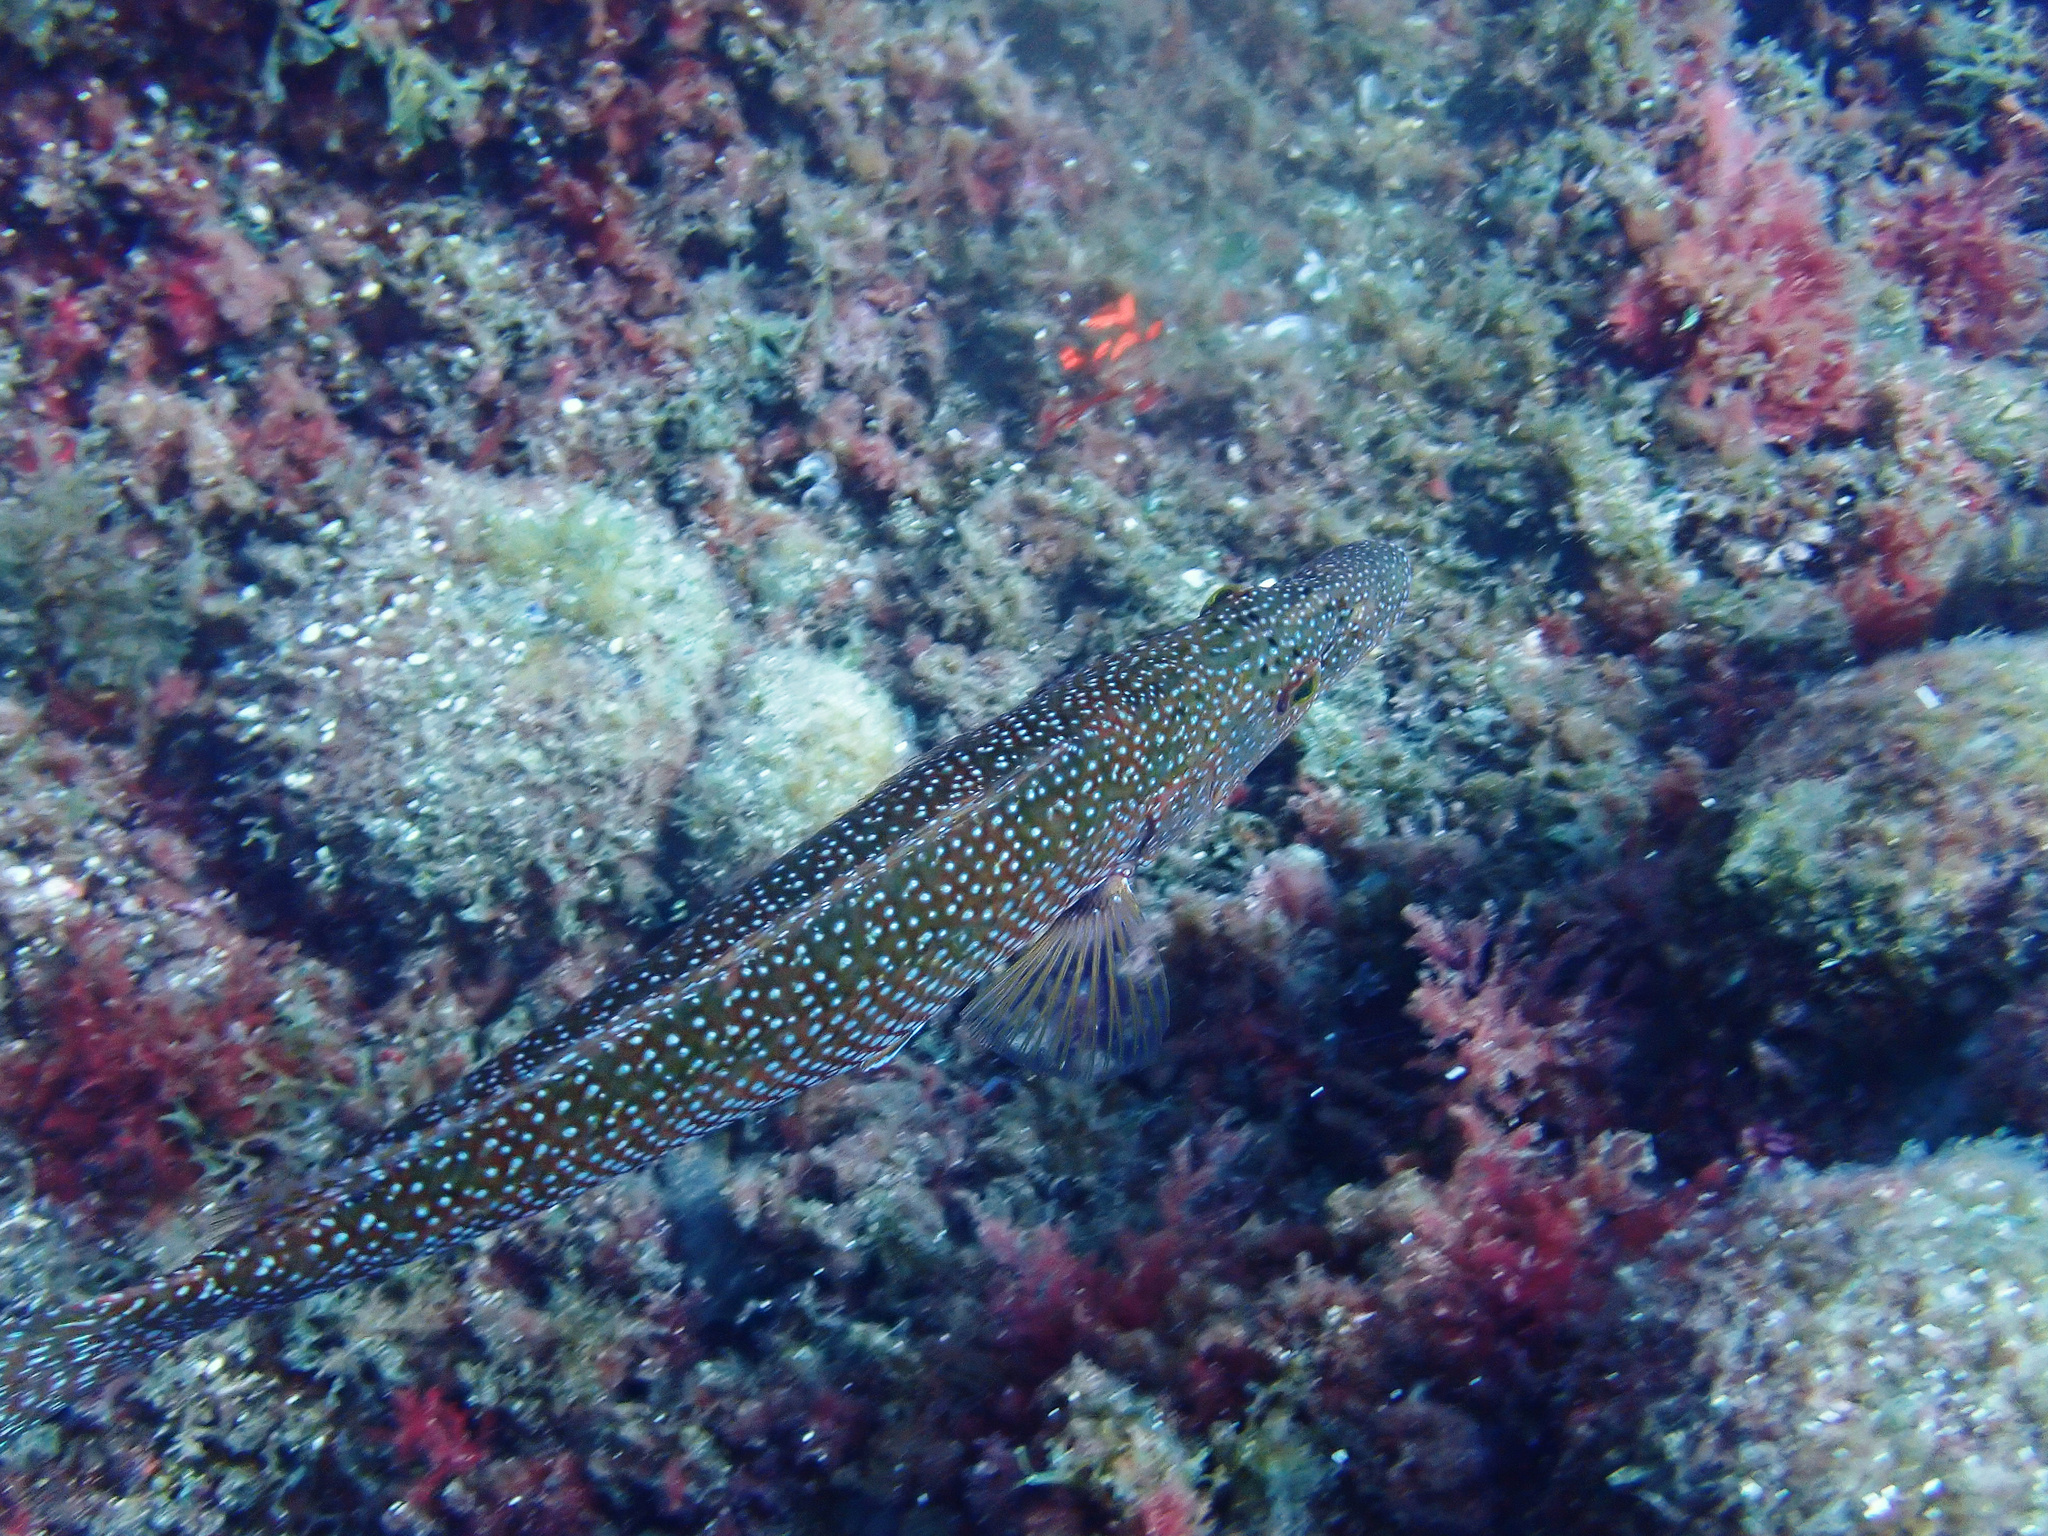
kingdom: Animalia
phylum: Chordata
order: Perciformes
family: Labridae
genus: Labrus
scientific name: Labrus viridis
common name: Green wrasse
